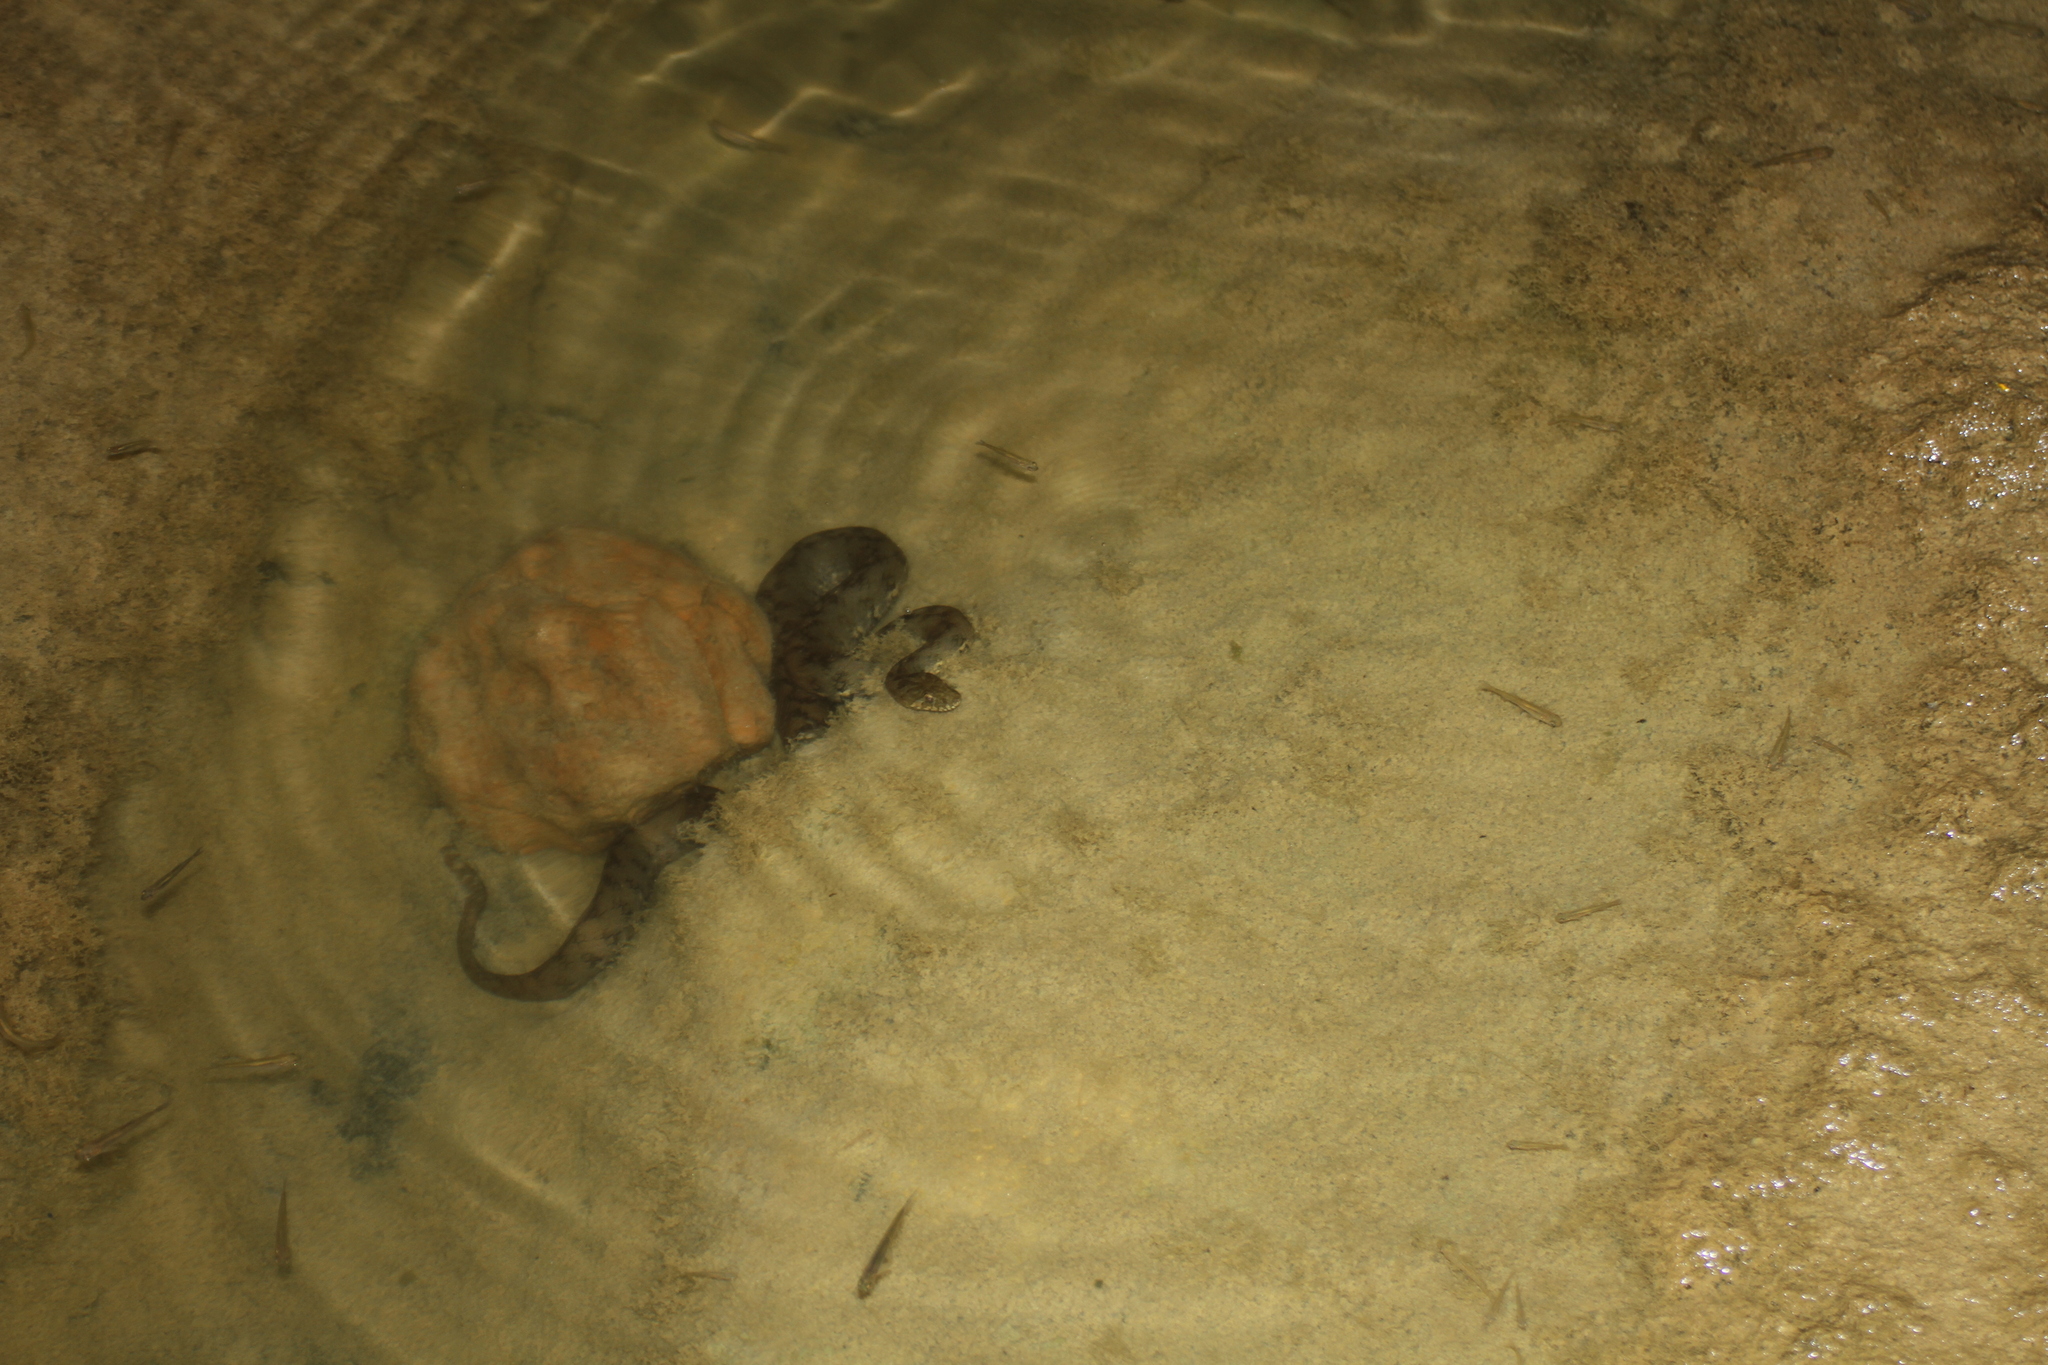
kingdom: Animalia
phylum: Chordata
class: Squamata
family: Colubridae
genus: Natrix
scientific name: Natrix maura
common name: Viperine water snake
